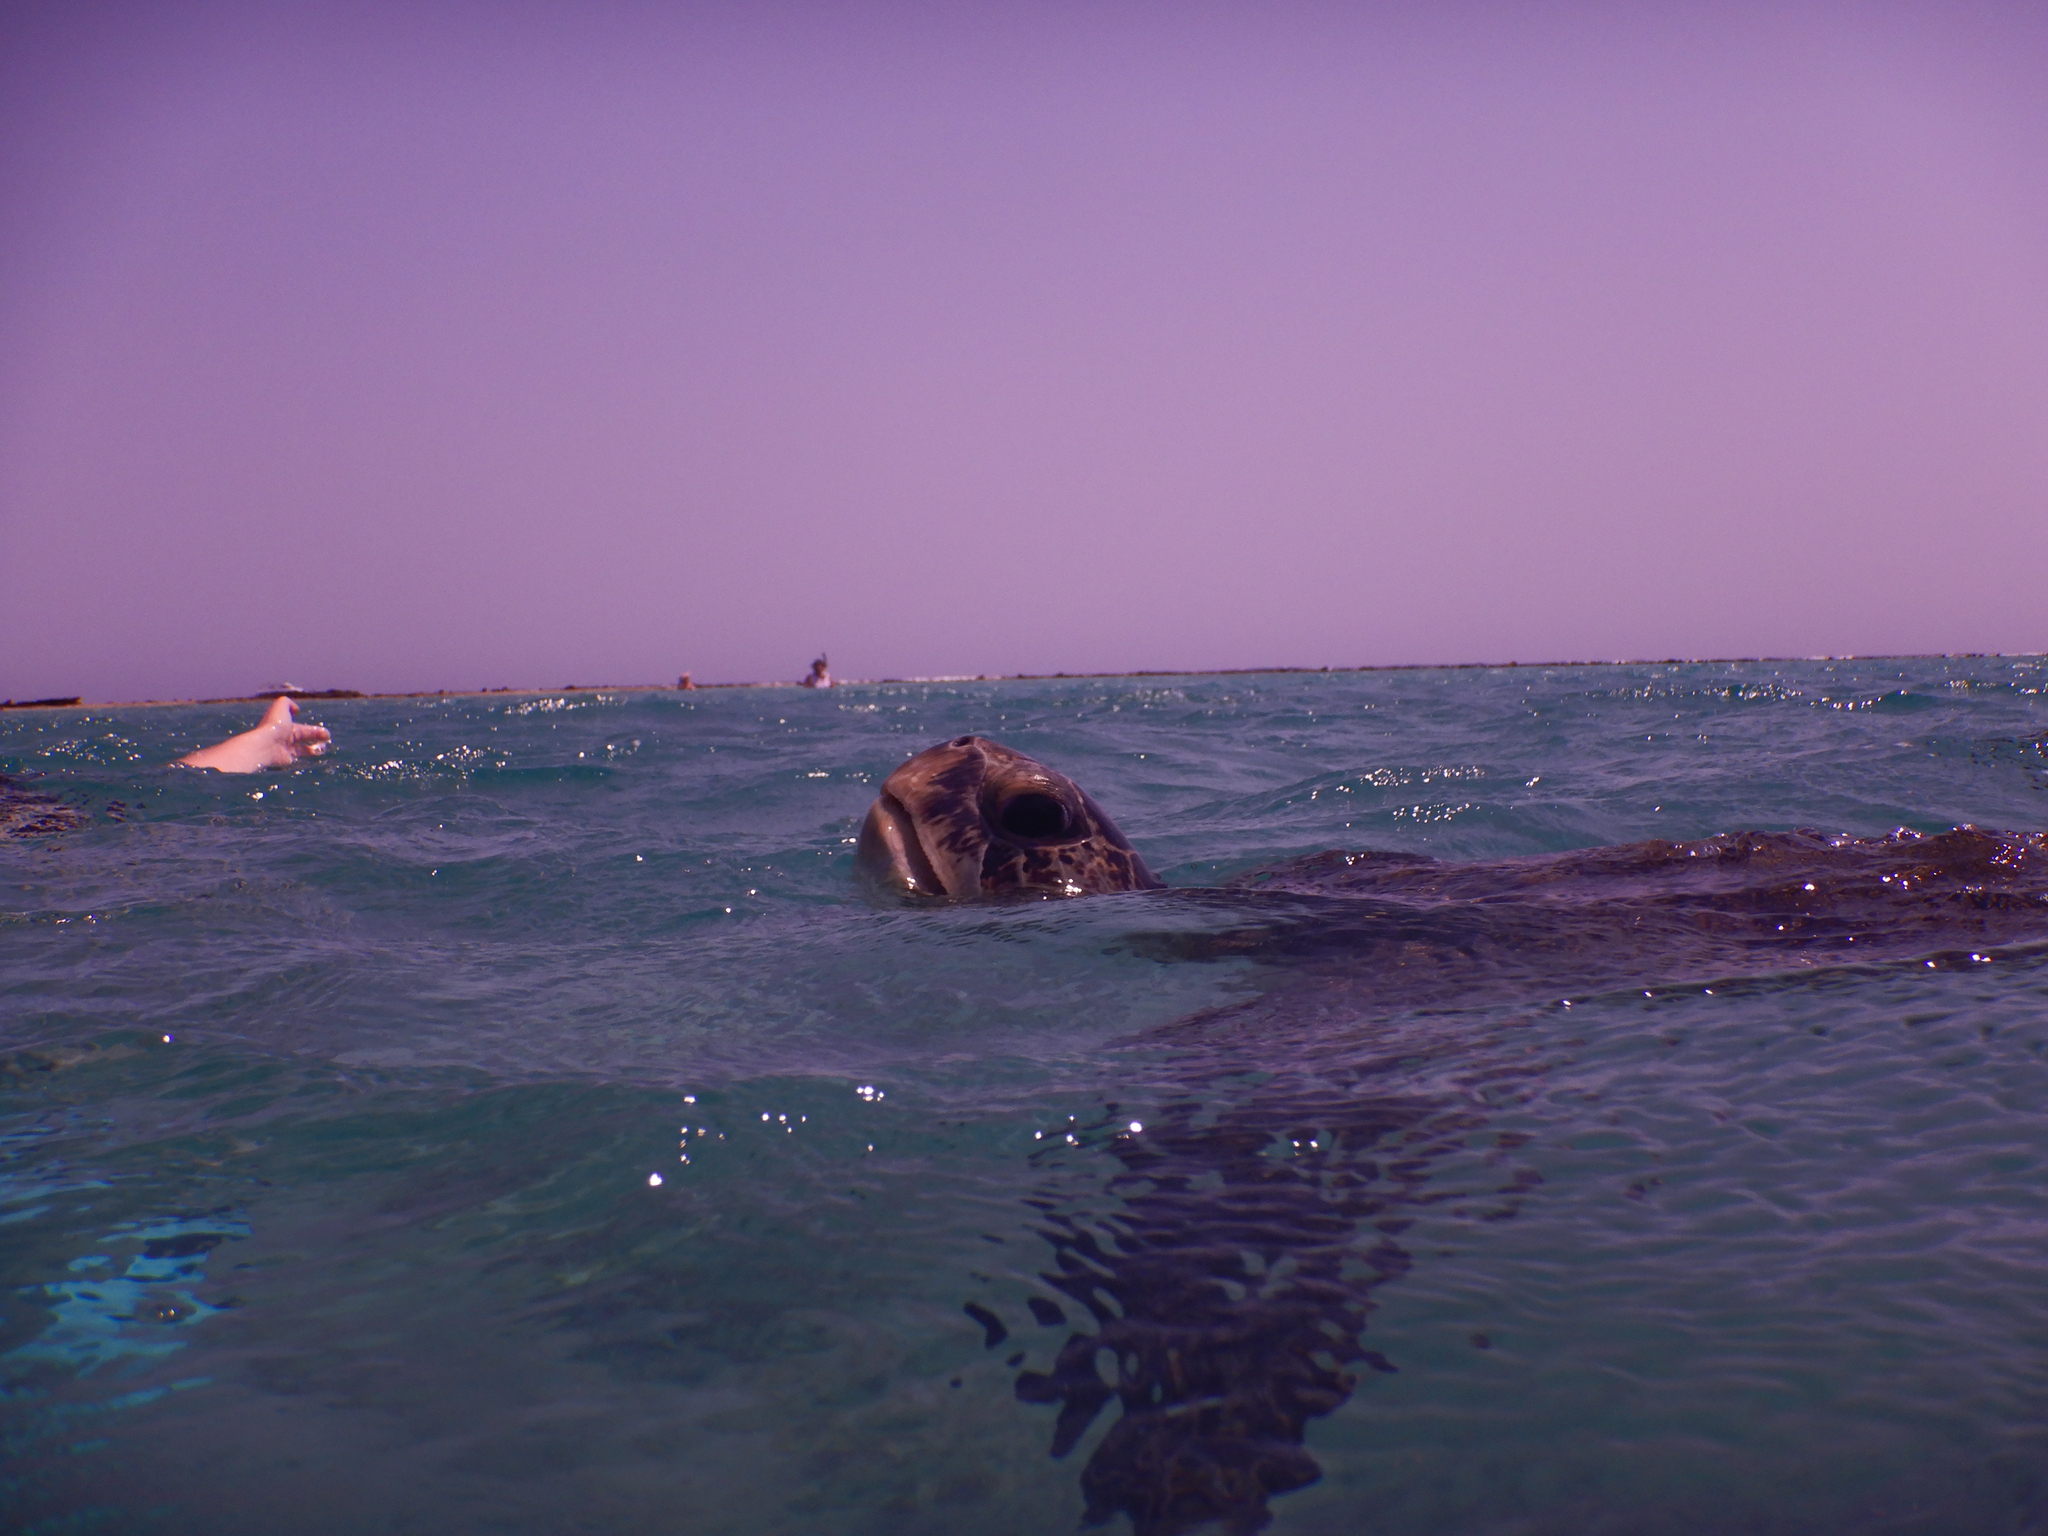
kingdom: Animalia
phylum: Chordata
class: Testudines
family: Cheloniidae
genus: Chelonia
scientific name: Chelonia mydas
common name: Green turtle
